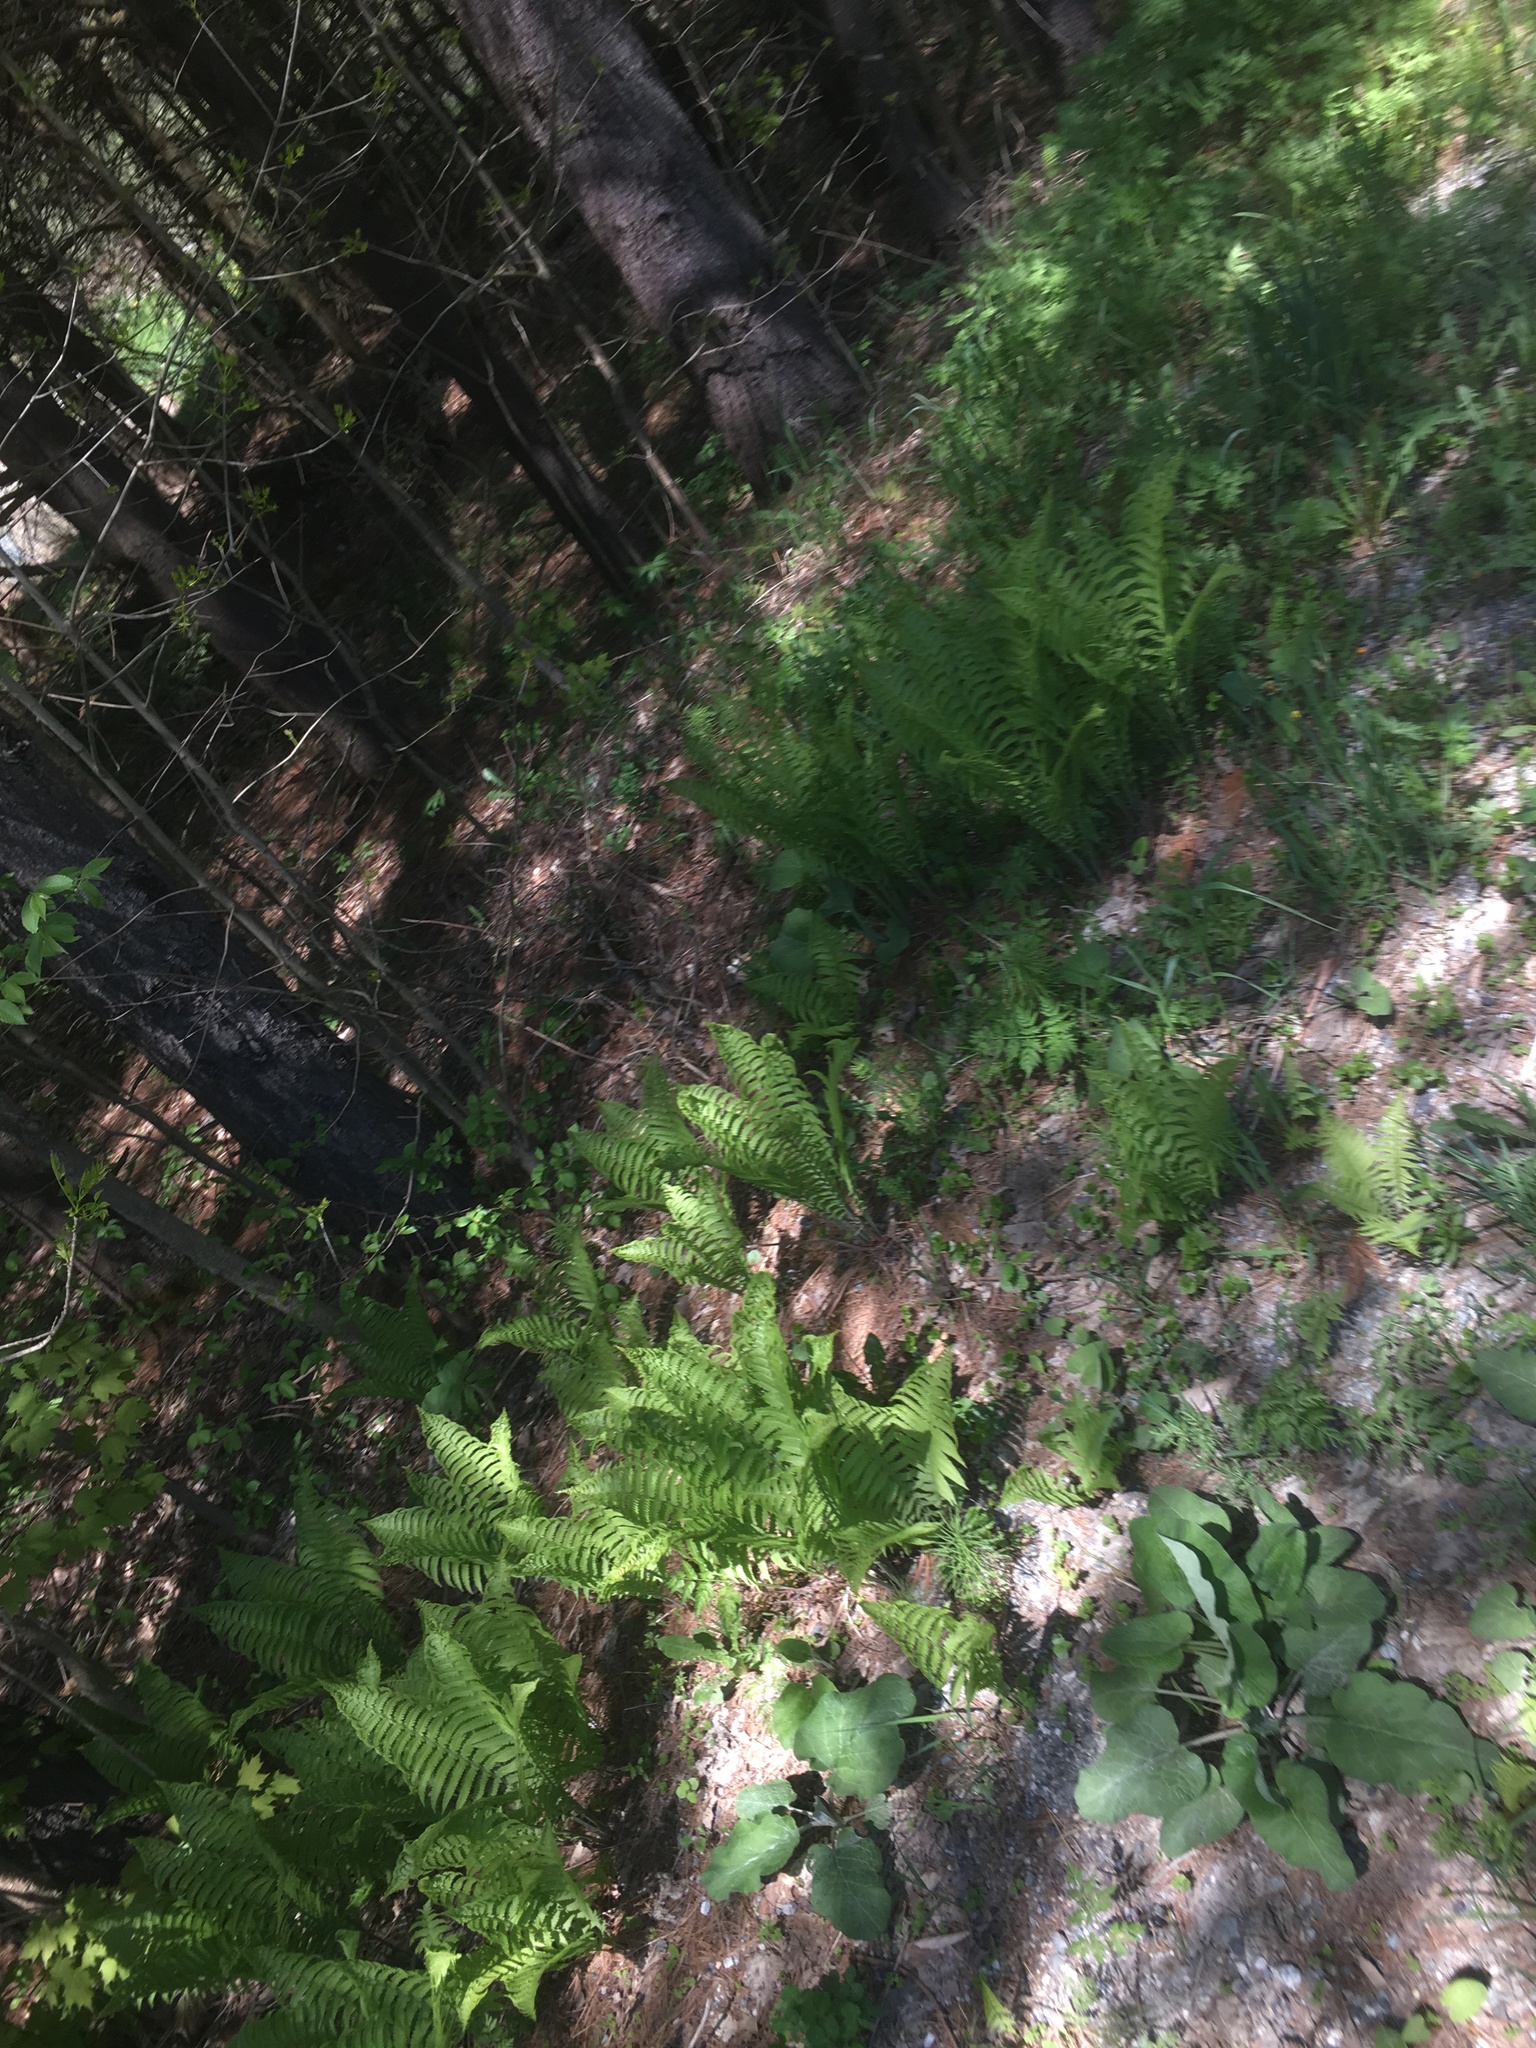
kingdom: Plantae
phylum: Tracheophyta
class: Polypodiopsida
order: Polypodiales
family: Onocleaceae
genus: Matteuccia
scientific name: Matteuccia struthiopteris
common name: Ostrich fern
